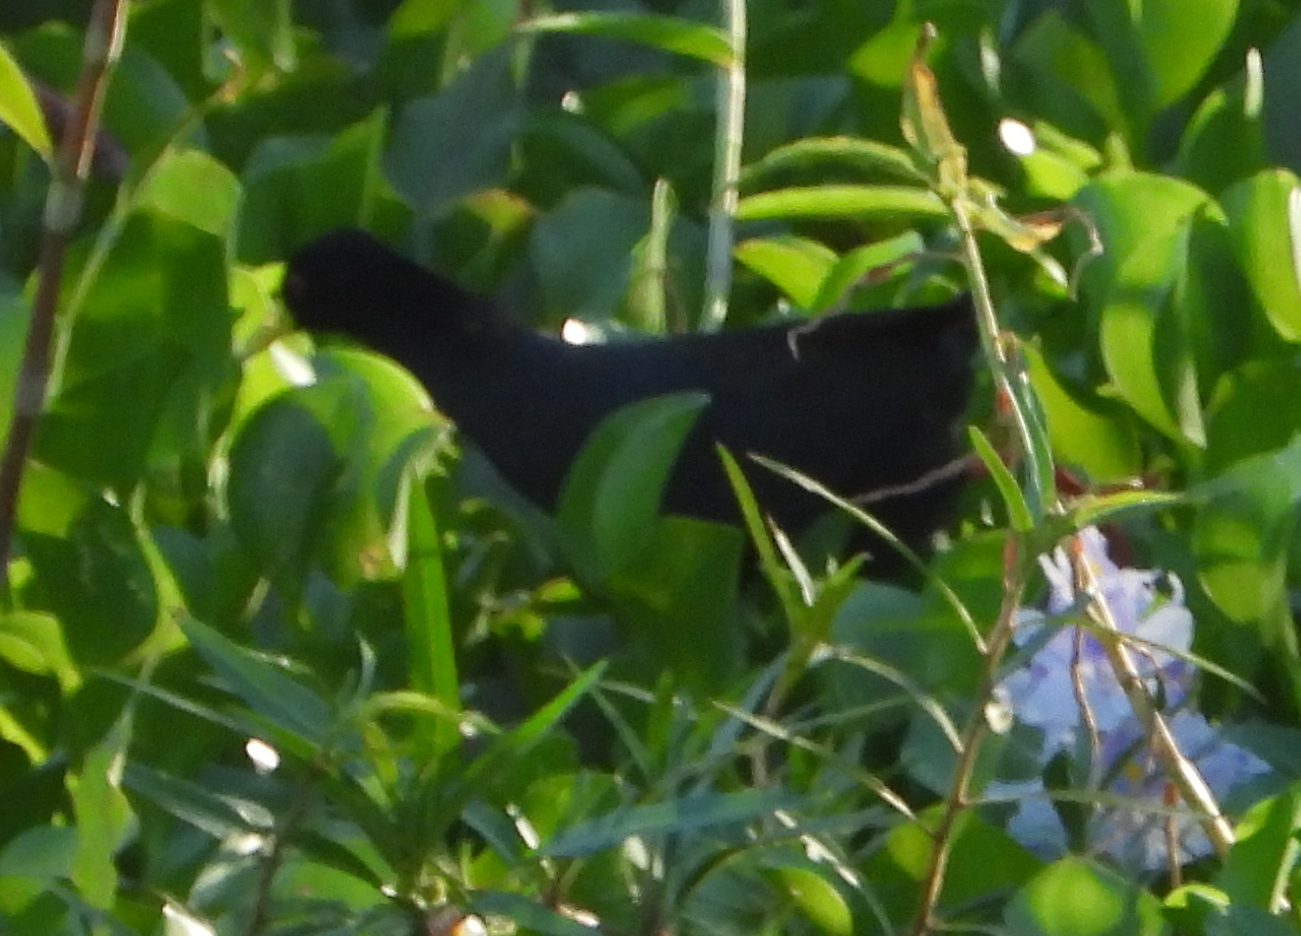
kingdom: Animalia
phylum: Chordata
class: Aves
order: Gruiformes
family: Rallidae
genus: Amaurornis
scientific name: Amaurornis flavirostra
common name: Black crake
